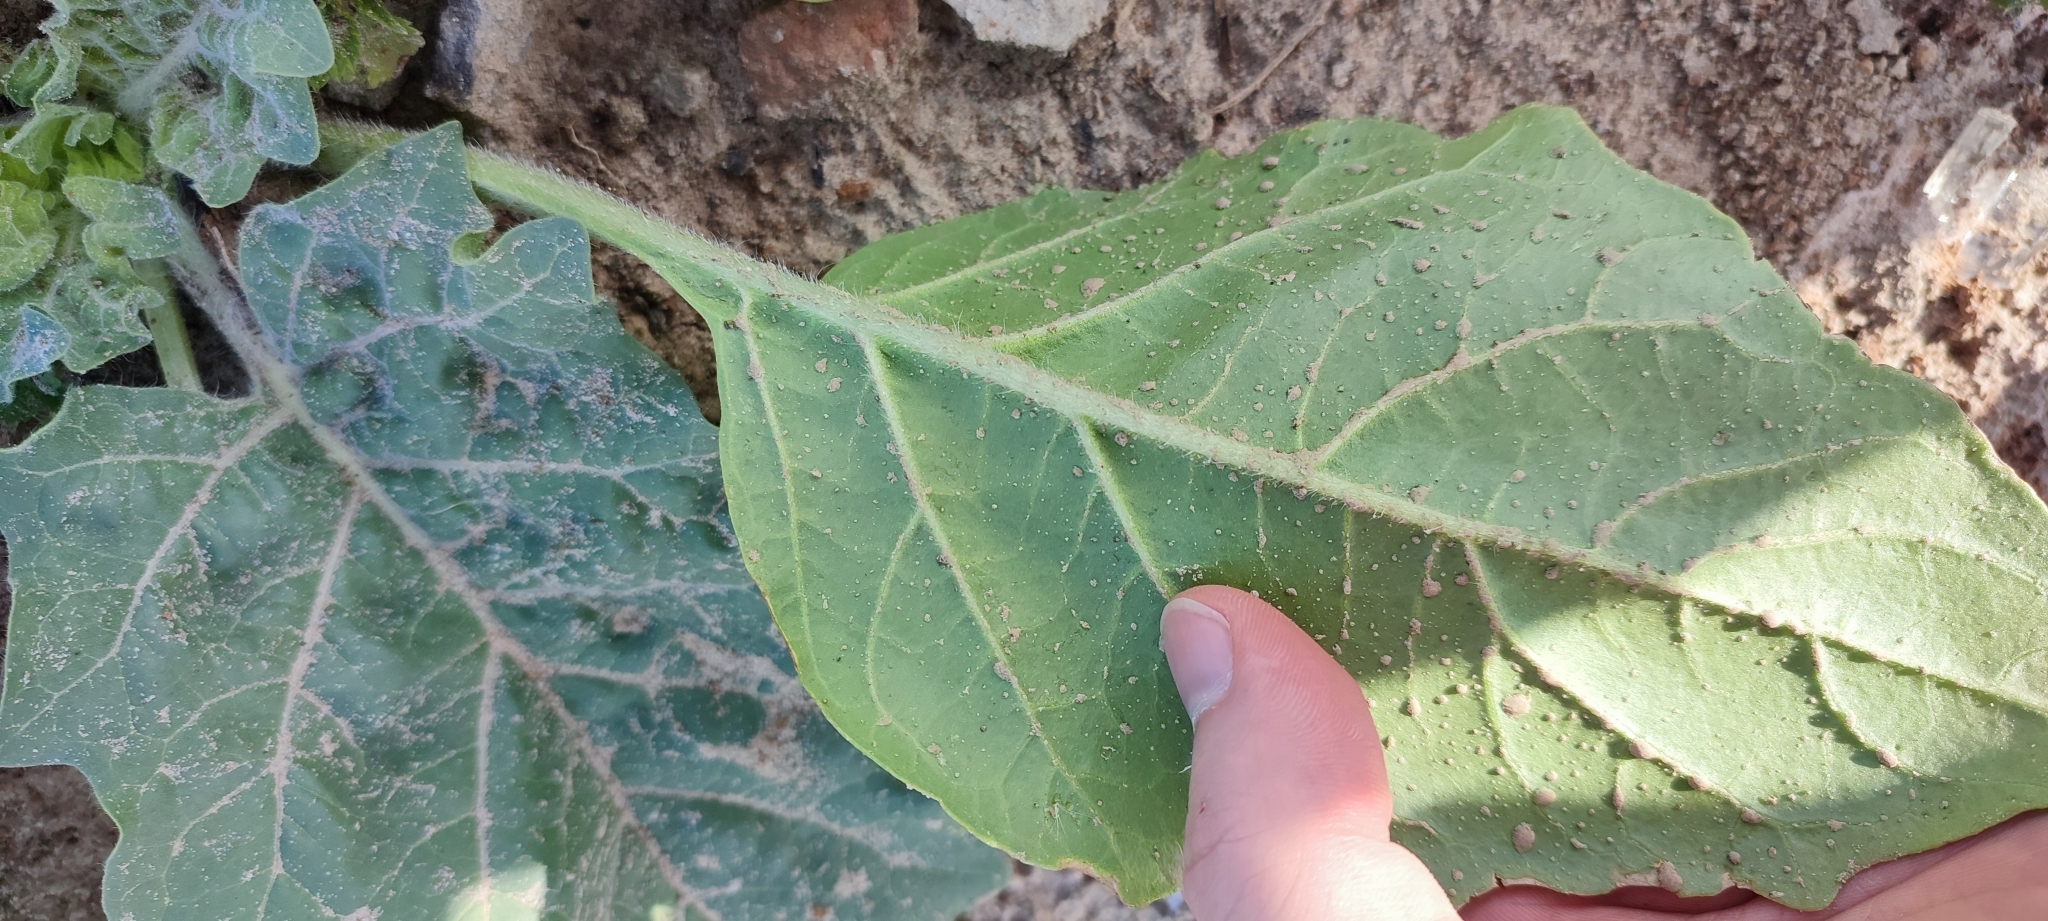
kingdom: Plantae
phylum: Tracheophyta
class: Magnoliopsida
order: Solanales
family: Solanaceae
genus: Hyoscyamus
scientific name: Hyoscyamus niger
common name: Henbane
